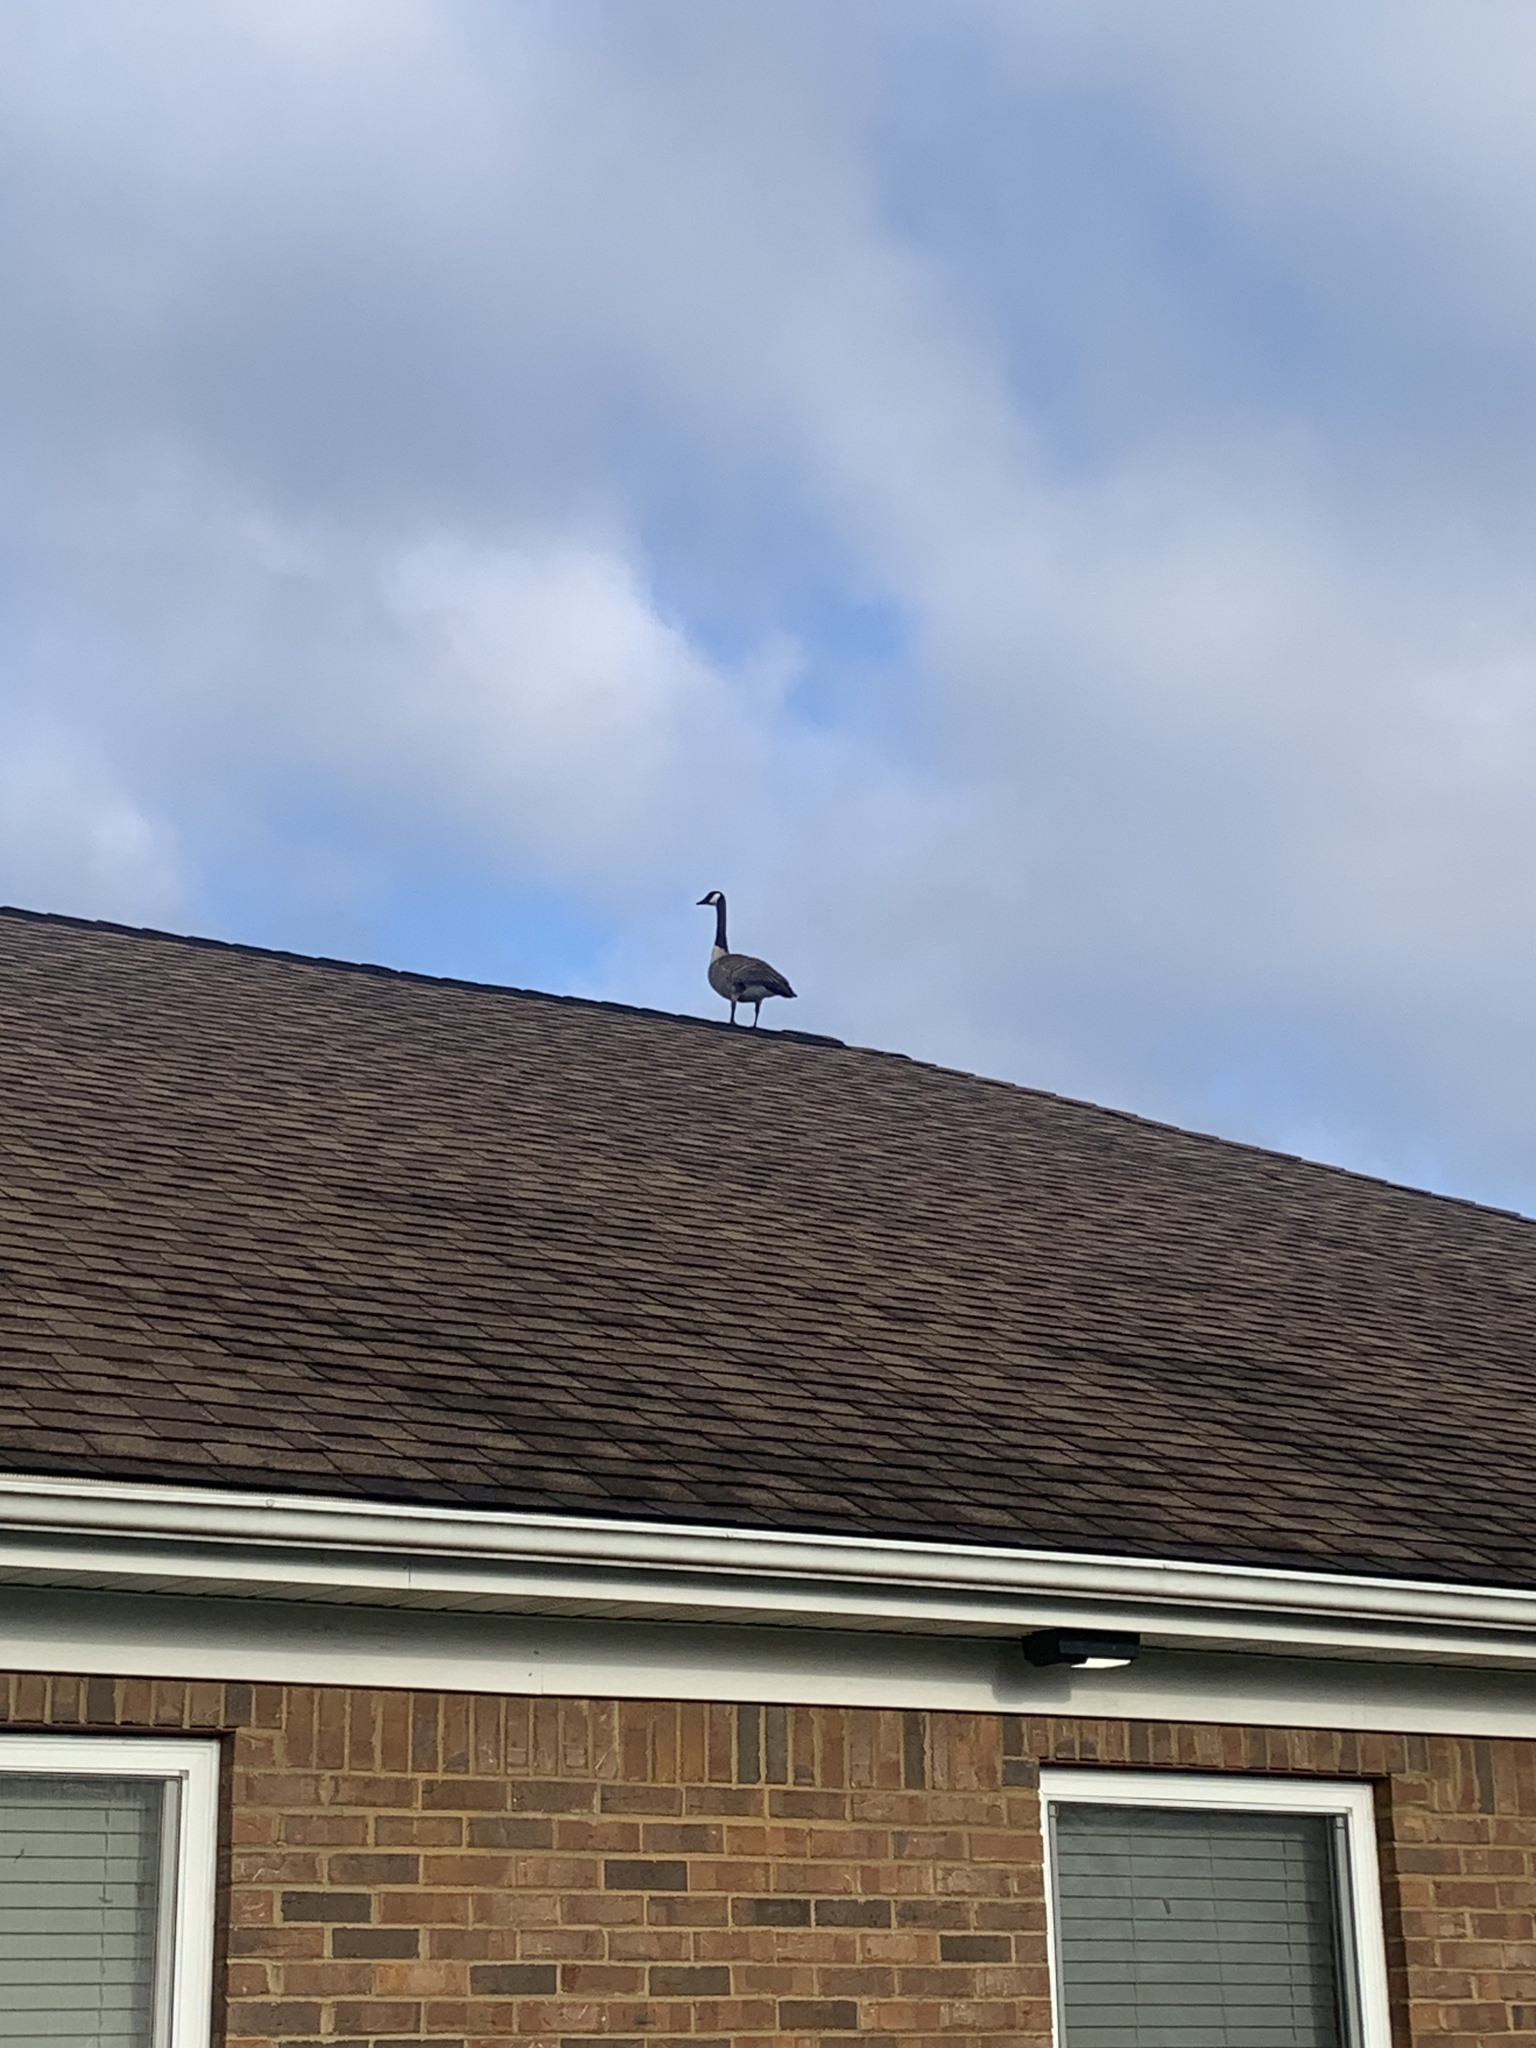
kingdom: Animalia
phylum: Chordata
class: Aves
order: Anseriformes
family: Anatidae
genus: Branta
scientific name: Branta canadensis
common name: Canada goose
